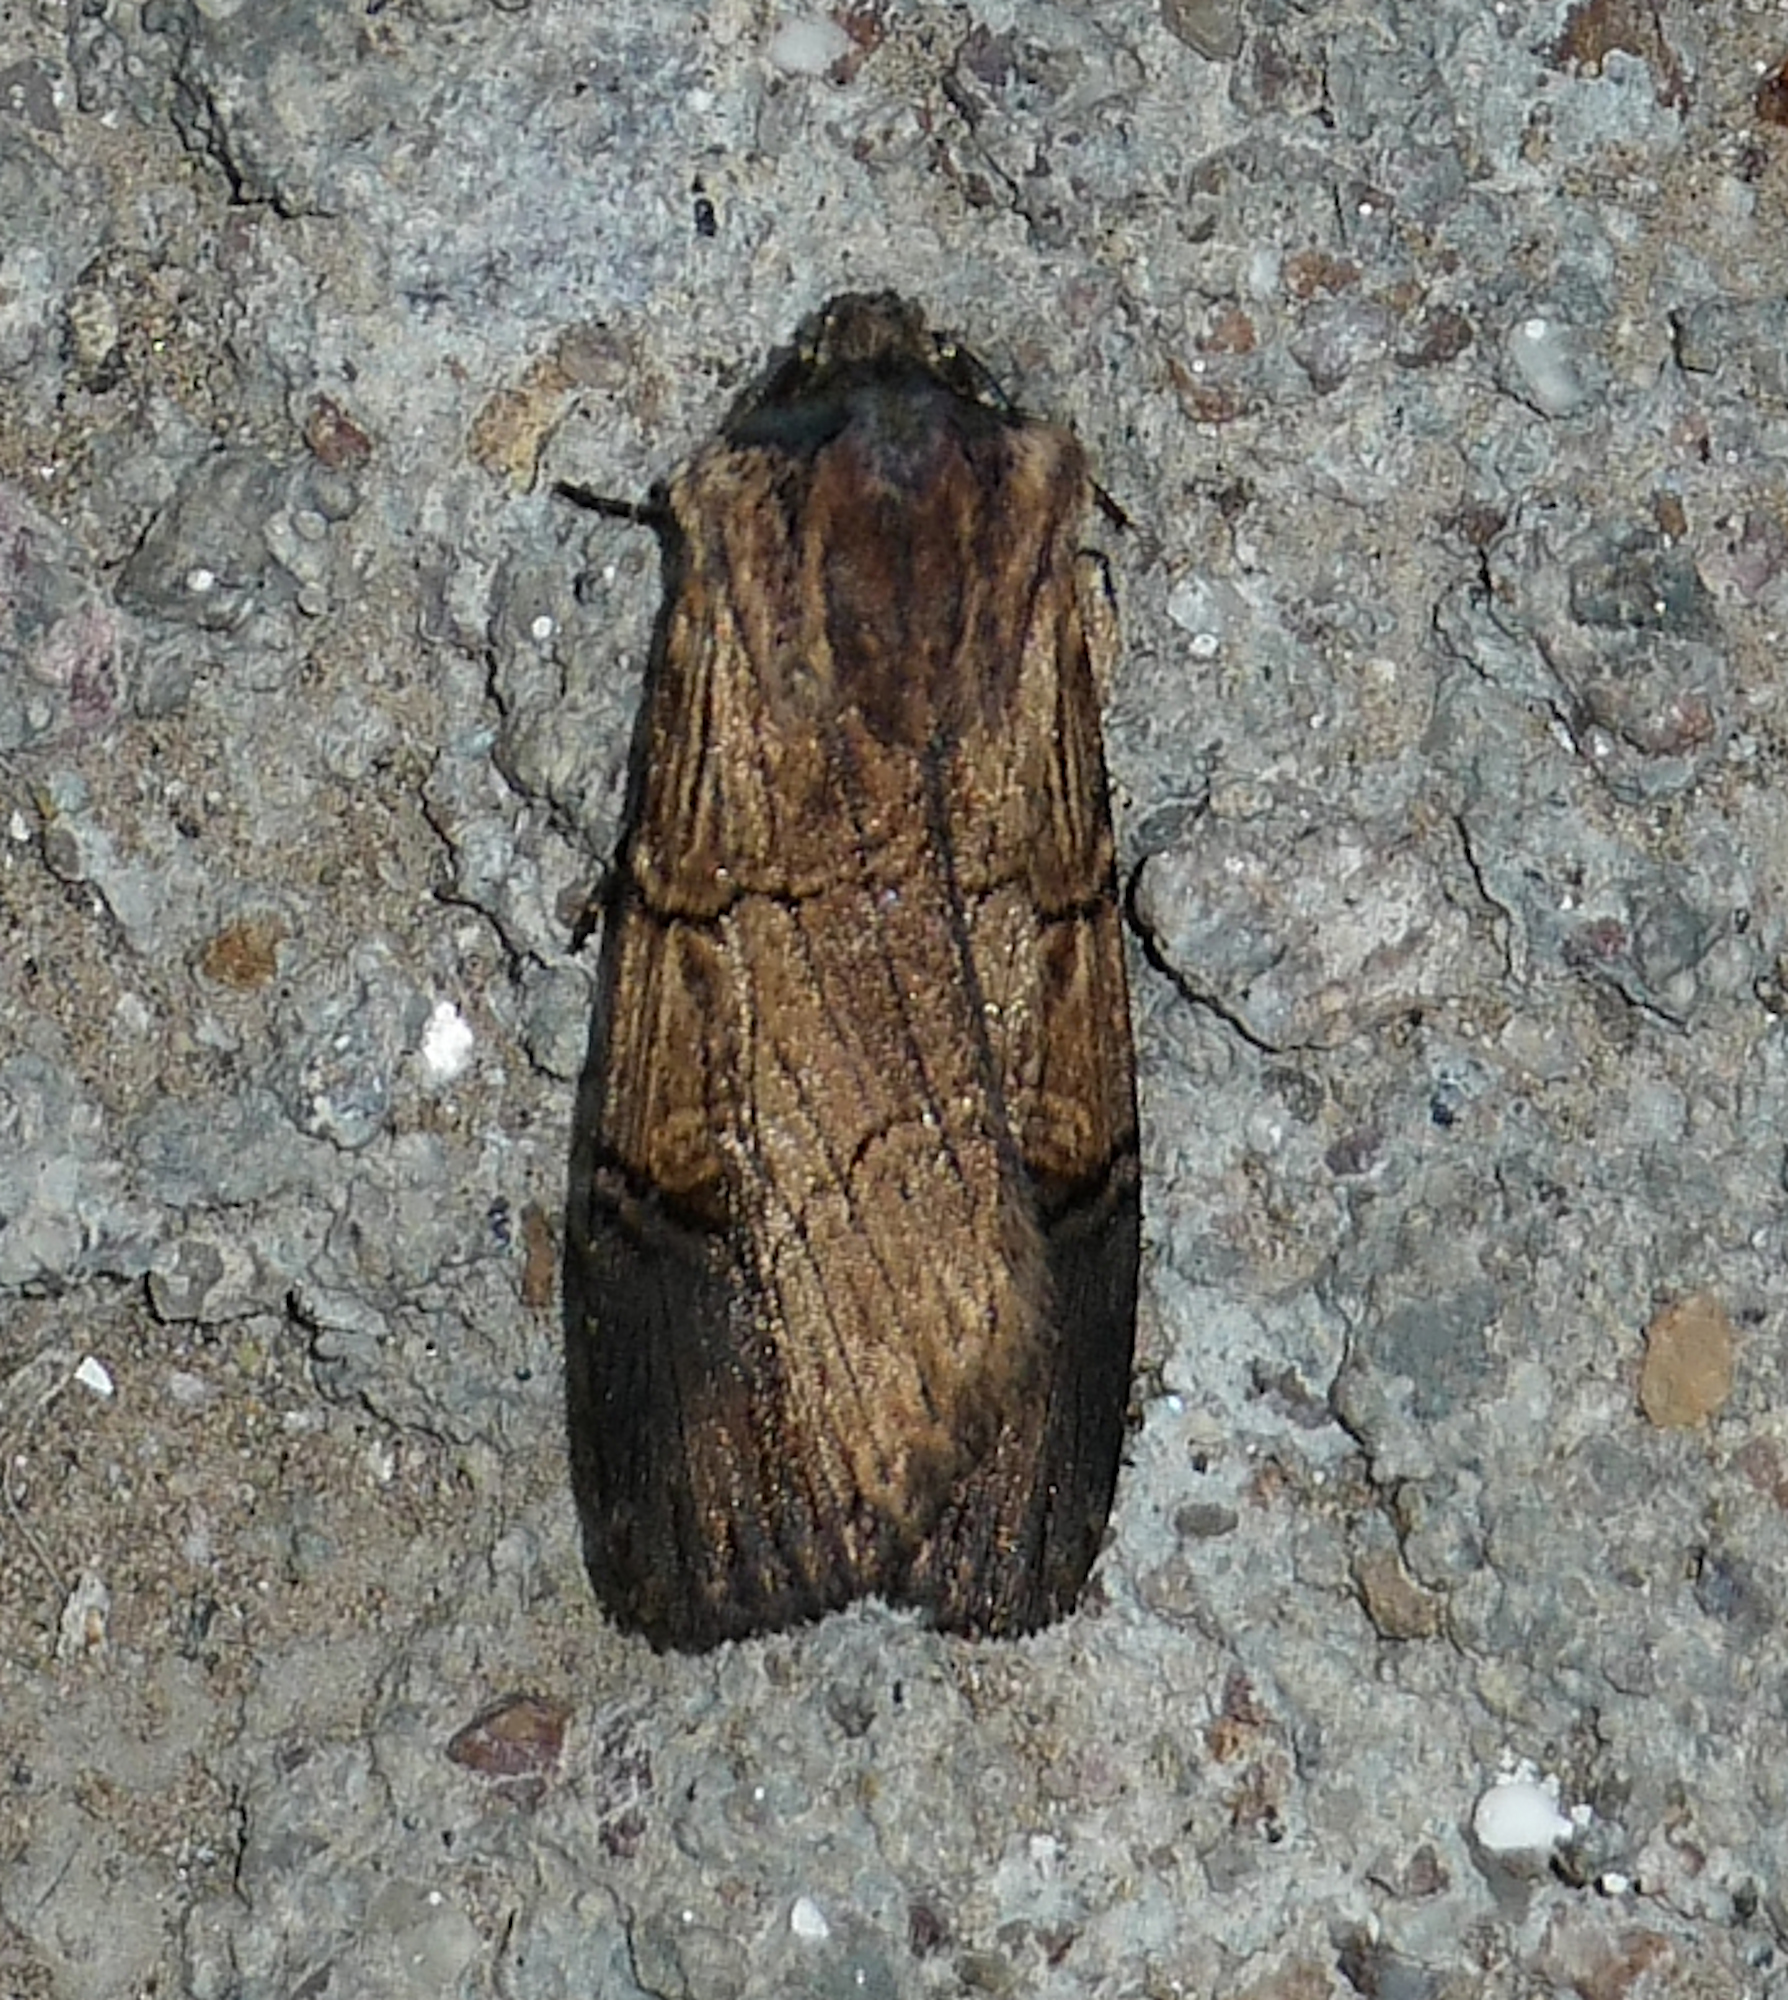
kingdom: Animalia
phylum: Arthropoda
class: Insecta
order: Lepidoptera
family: Noctuidae
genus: Dichagyris
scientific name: Dichagyris grotei
